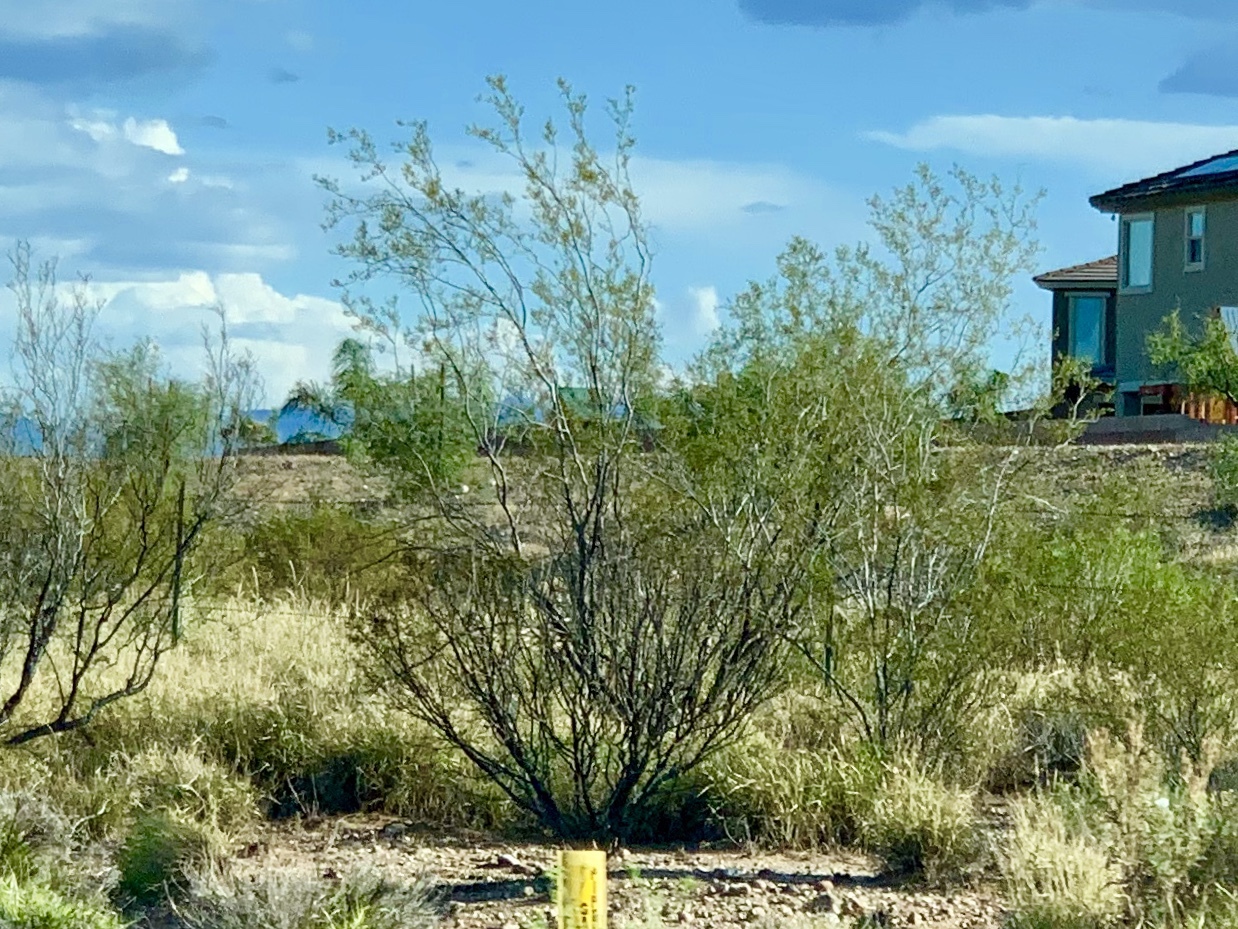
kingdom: Plantae
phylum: Tracheophyta
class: Magnoliopsida
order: Zygophyllales
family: Zygophyllaceae
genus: Larrea
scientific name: Larrea tridentata
